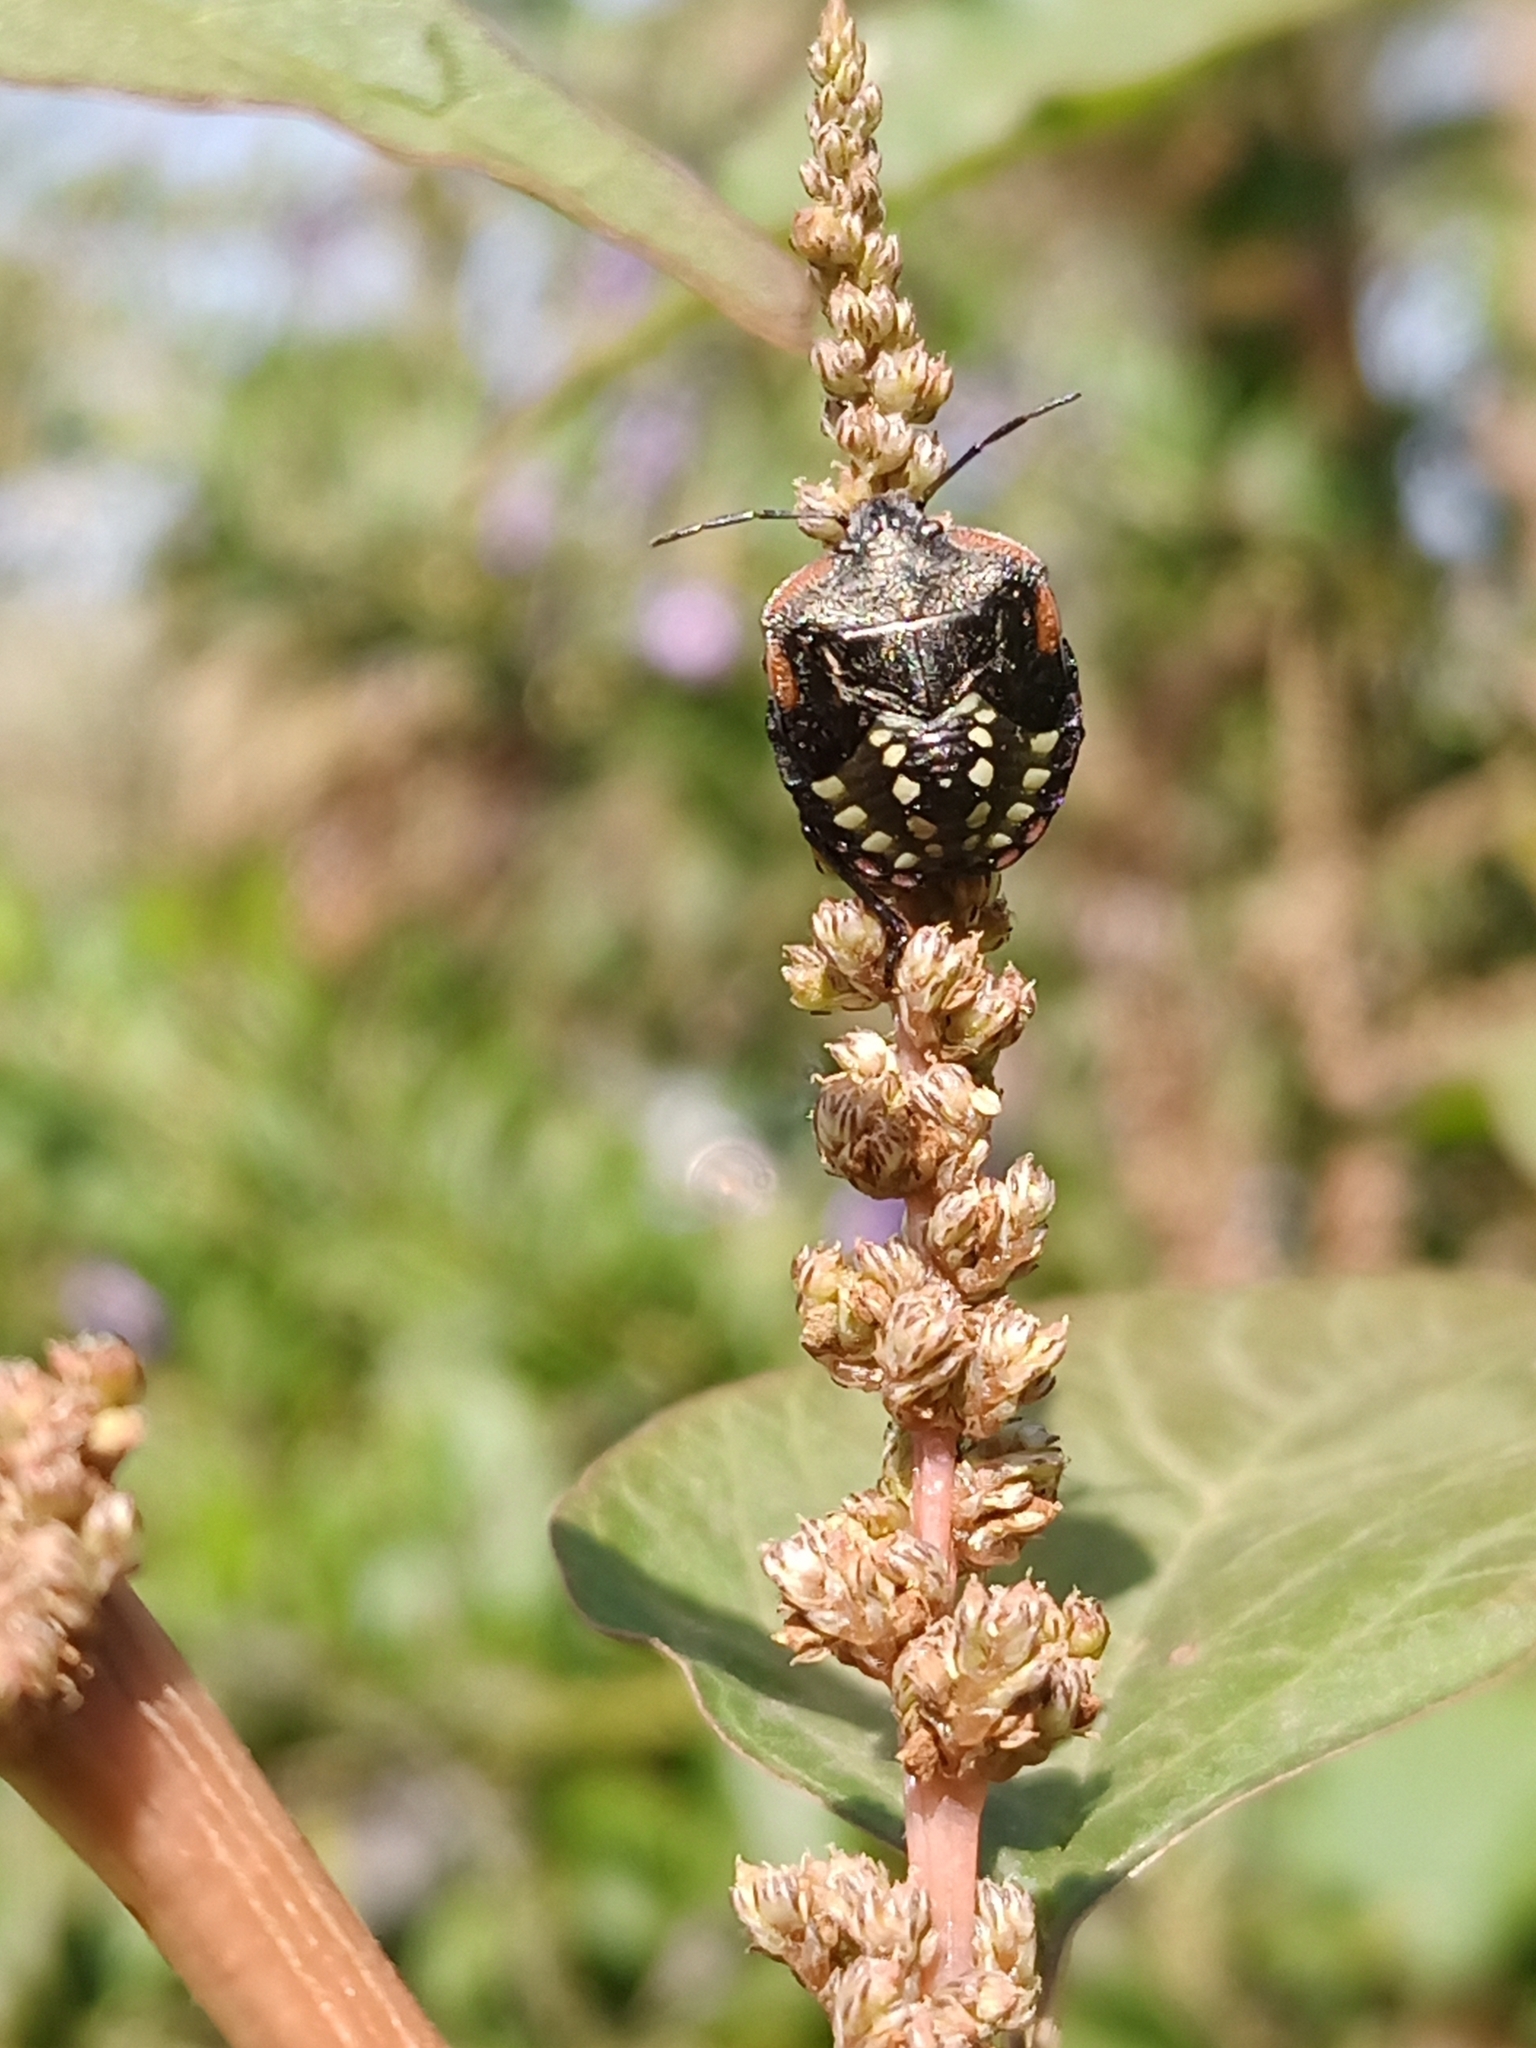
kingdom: Animalia
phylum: Arthropoda
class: Insecta
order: Hemiptera
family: Pentatomidae
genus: Nezara
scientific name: Nezara viridula
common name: Southern green stink bug
